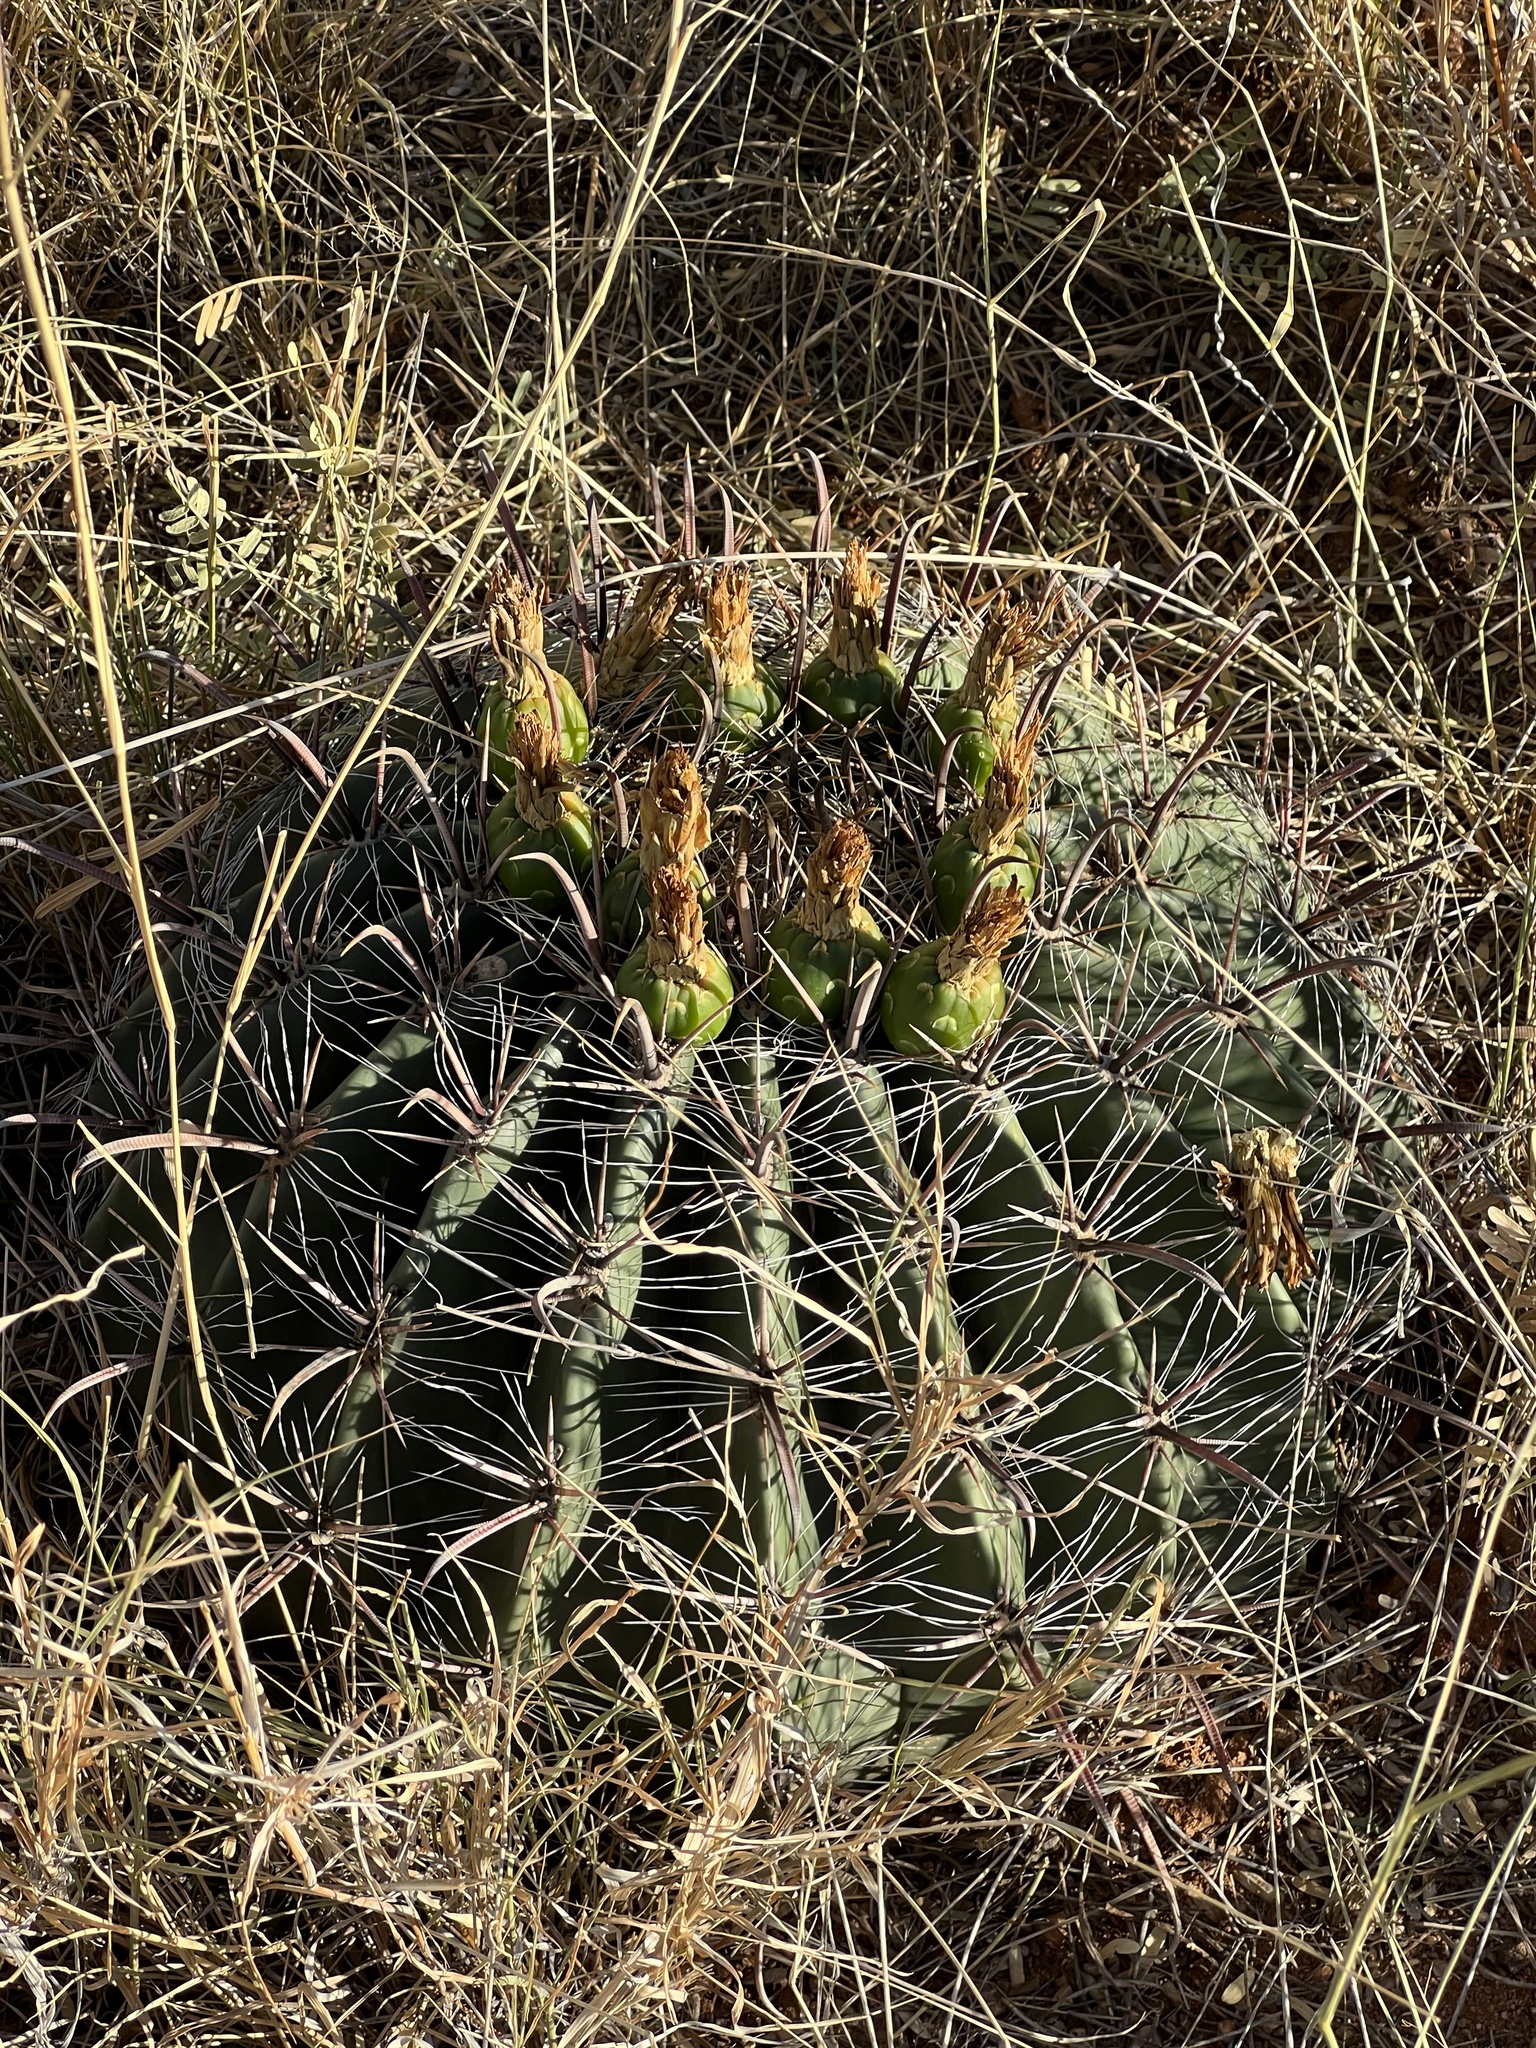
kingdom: Plantae
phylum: Tracheophyta
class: Magnoliopsida
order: Caryophyllales
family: Cactaceae
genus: Ferocactus
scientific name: Ferocactus wislizeni
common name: Candy barrel cactus
